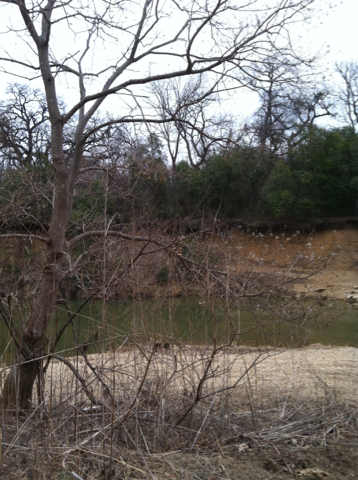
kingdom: Plantae
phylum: Tracheophyta
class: Magnoliopsida
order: Malpighiales
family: Euphorbiaceae
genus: Triadica
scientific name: Triadica sebifera
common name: Chinese tallow
